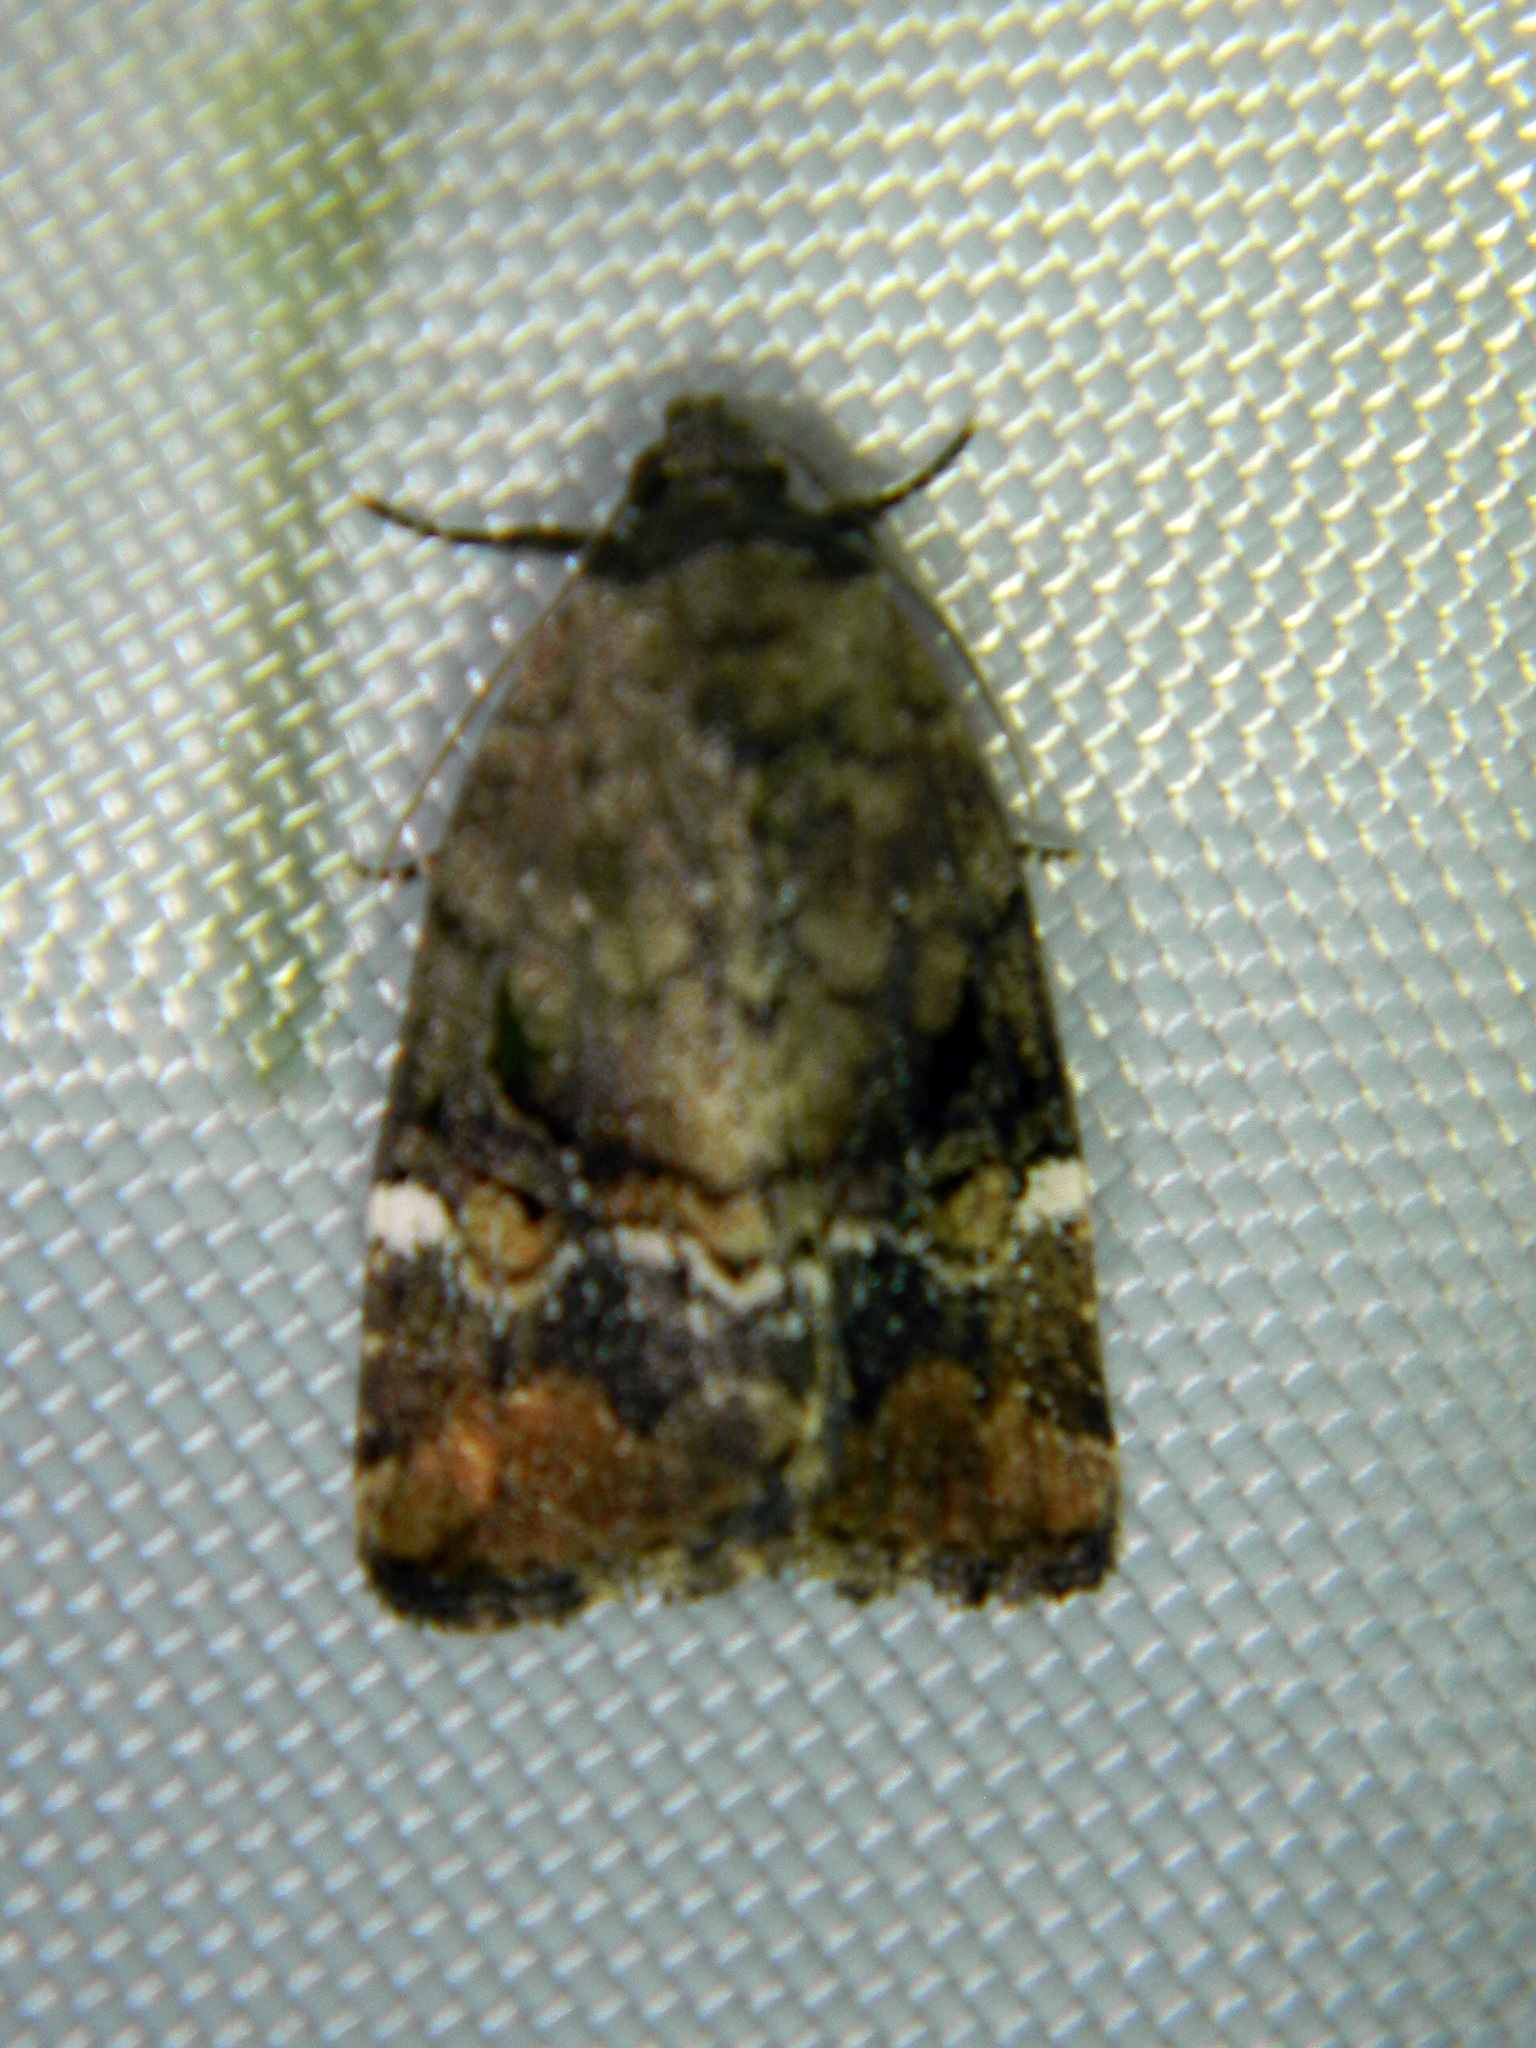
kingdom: Animalia
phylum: Arthropoda
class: Insecta
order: Lepidoptera
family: Noctuidae
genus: Elaphria
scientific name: Elaphria versicolor
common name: Fir harlequin
